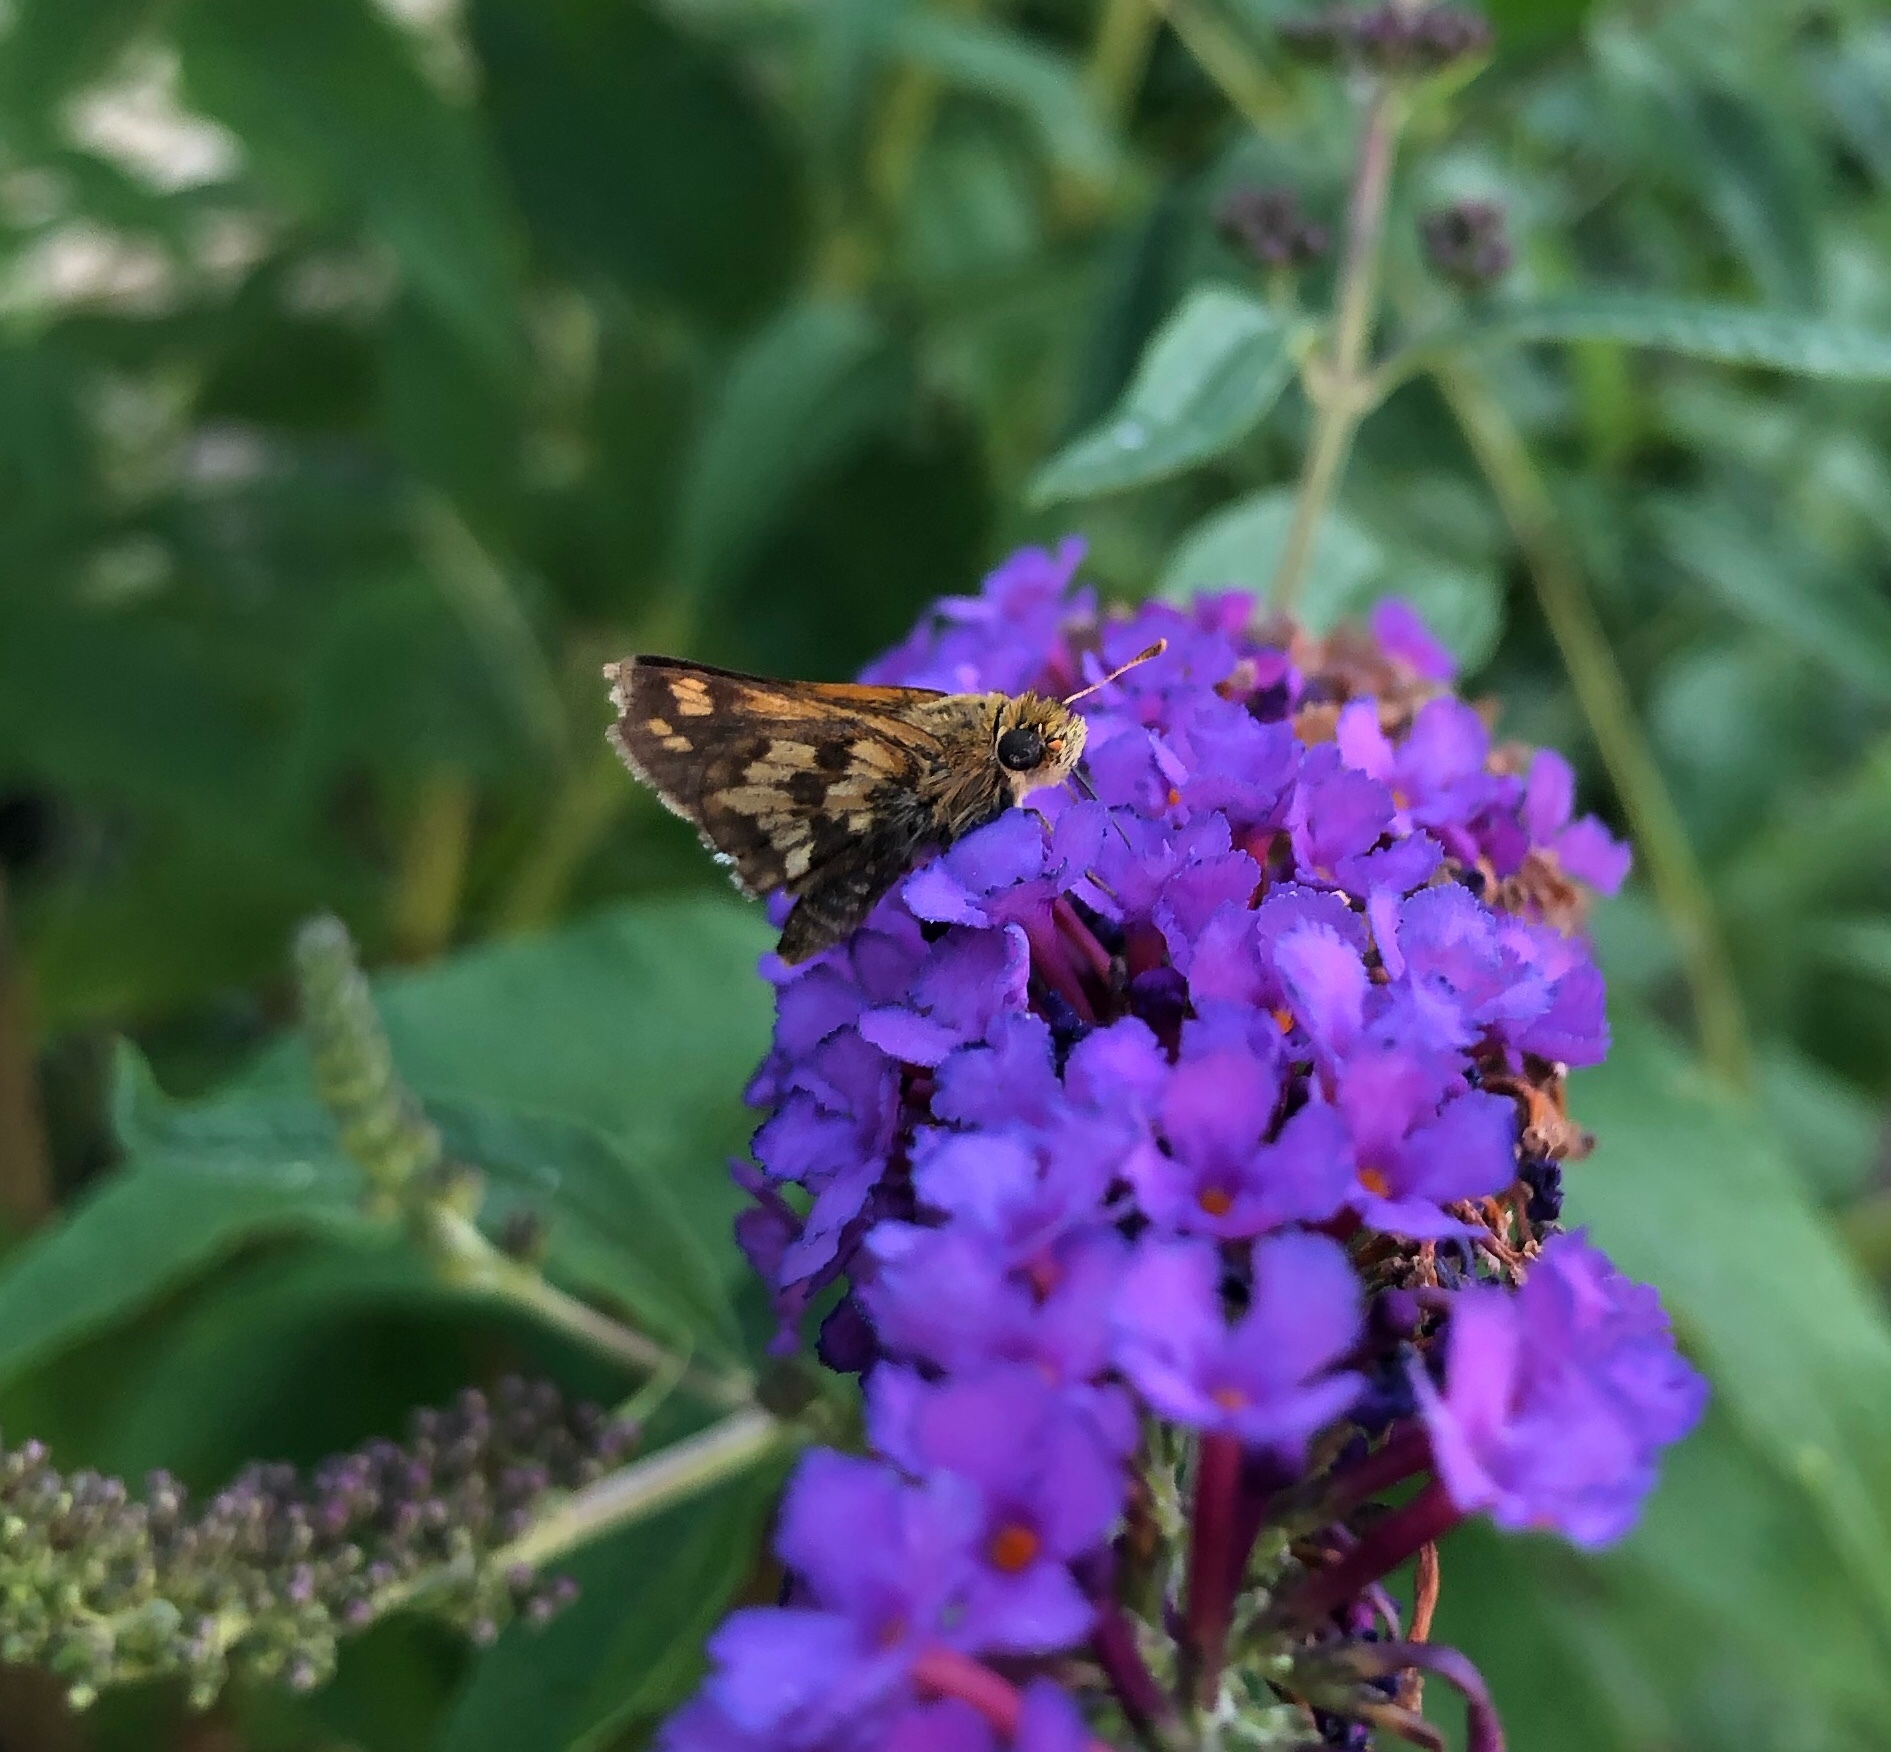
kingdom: Animalia
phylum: Arthropoda
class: Insecta
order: Lepidoptera
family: Hesperiidae
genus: Polites
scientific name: Polites coras
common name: Peck's skipper
